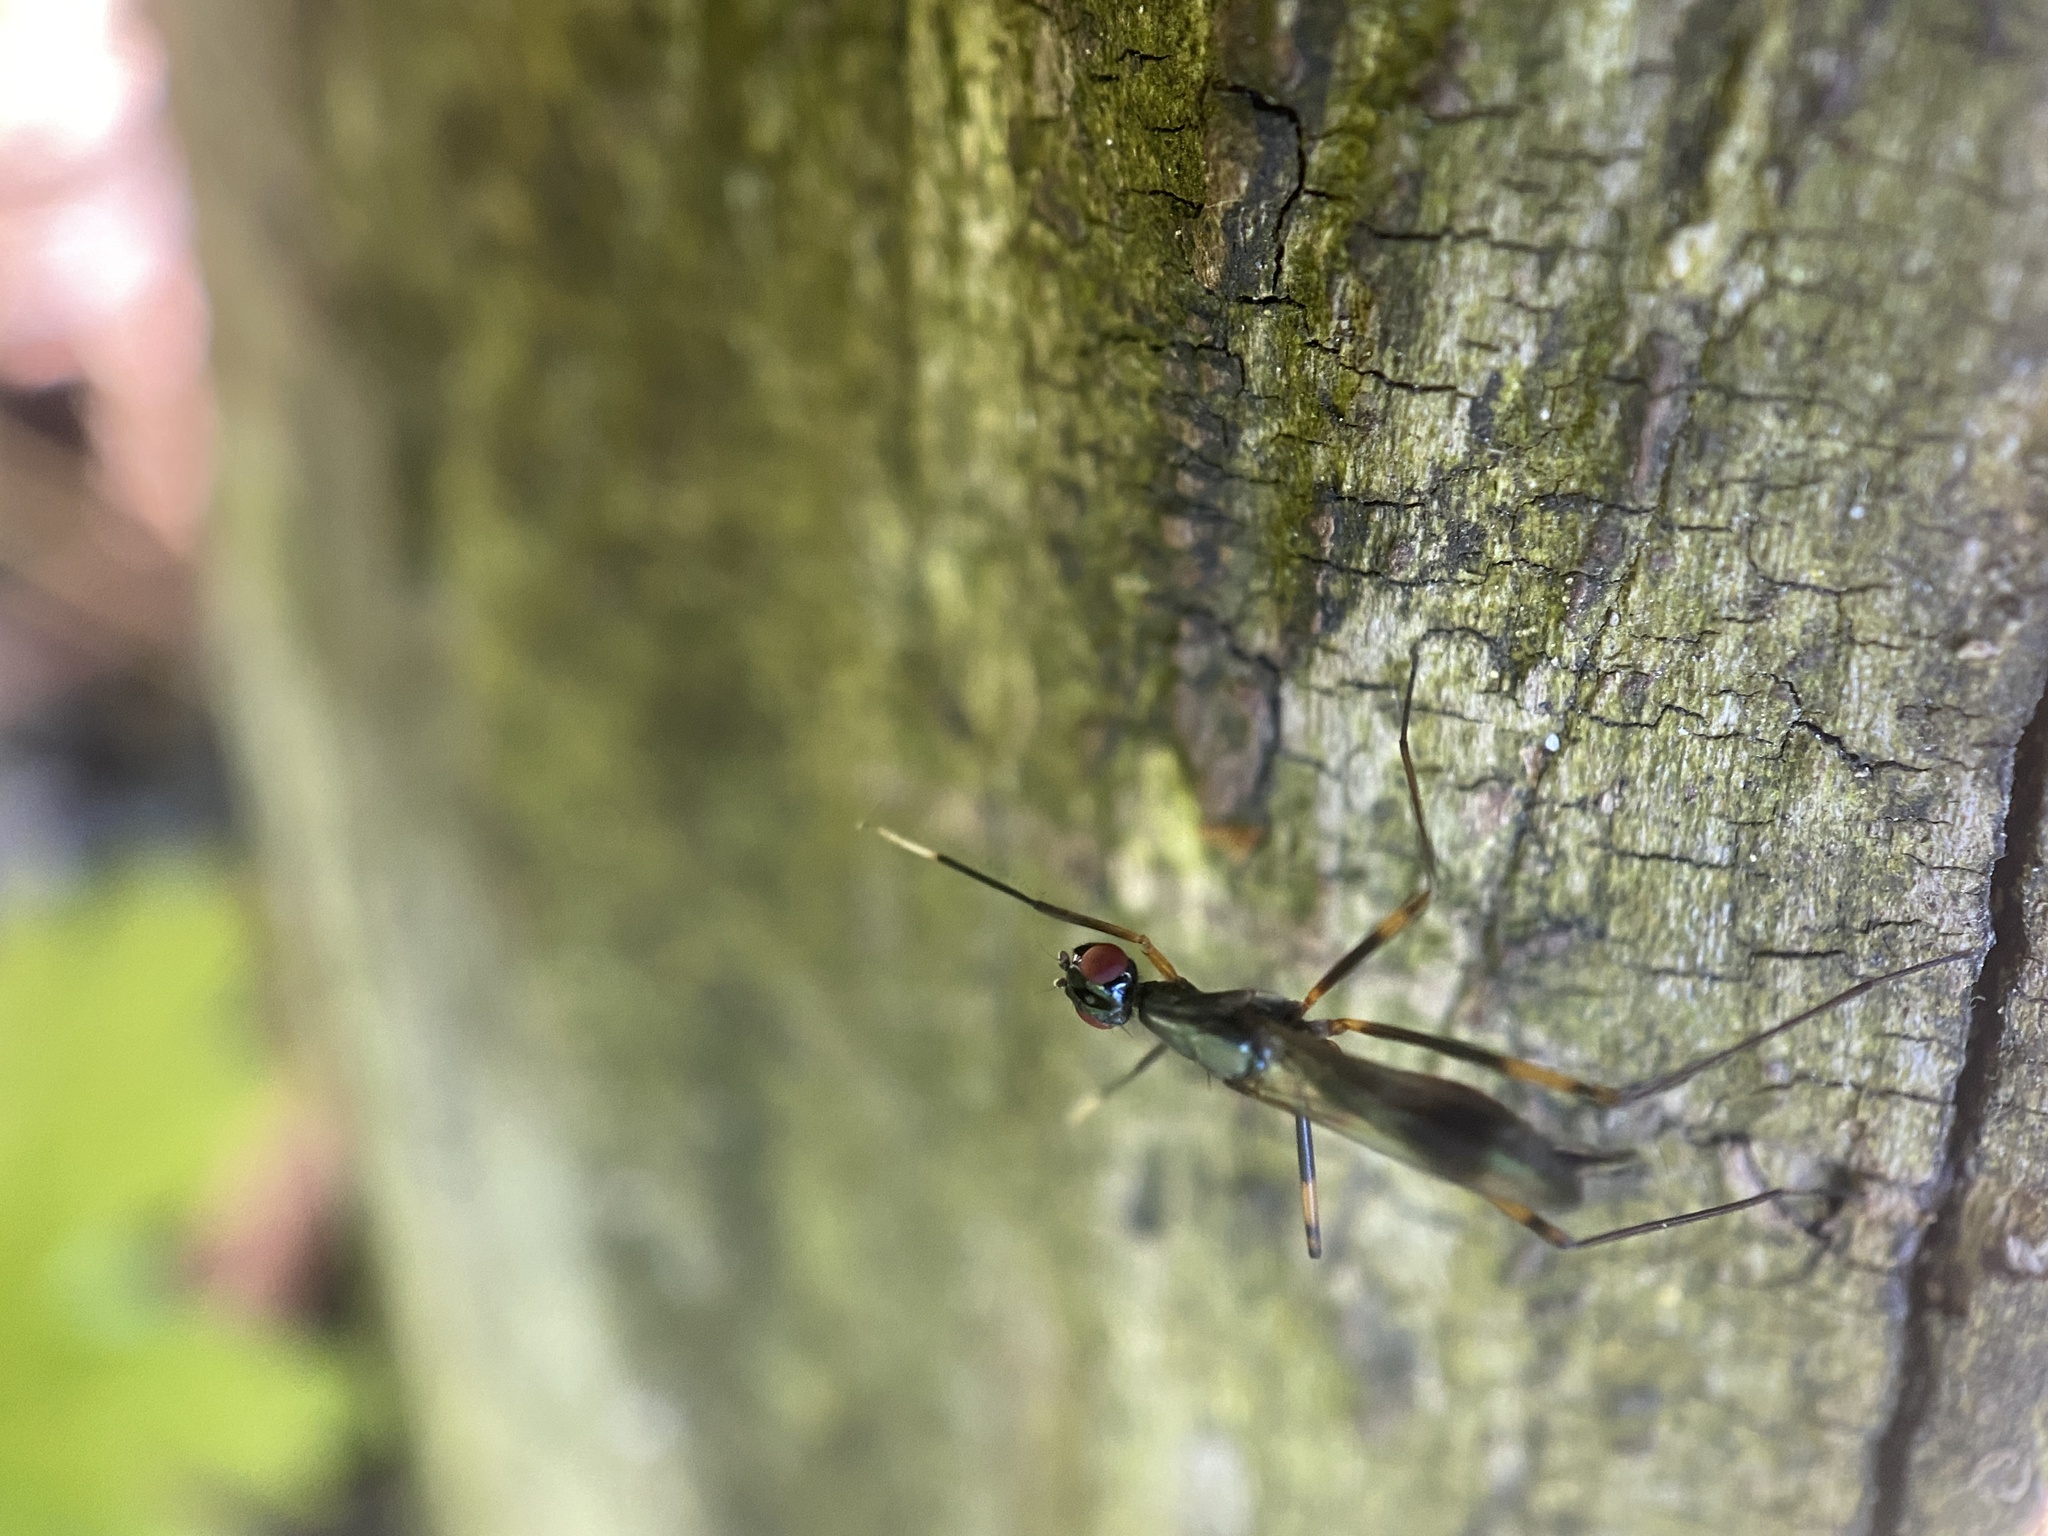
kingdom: Animalia
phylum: Arthropoda
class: Insecta
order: Diptera
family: Micropezidae
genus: Rainieria
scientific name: Rainieria antennaepes
